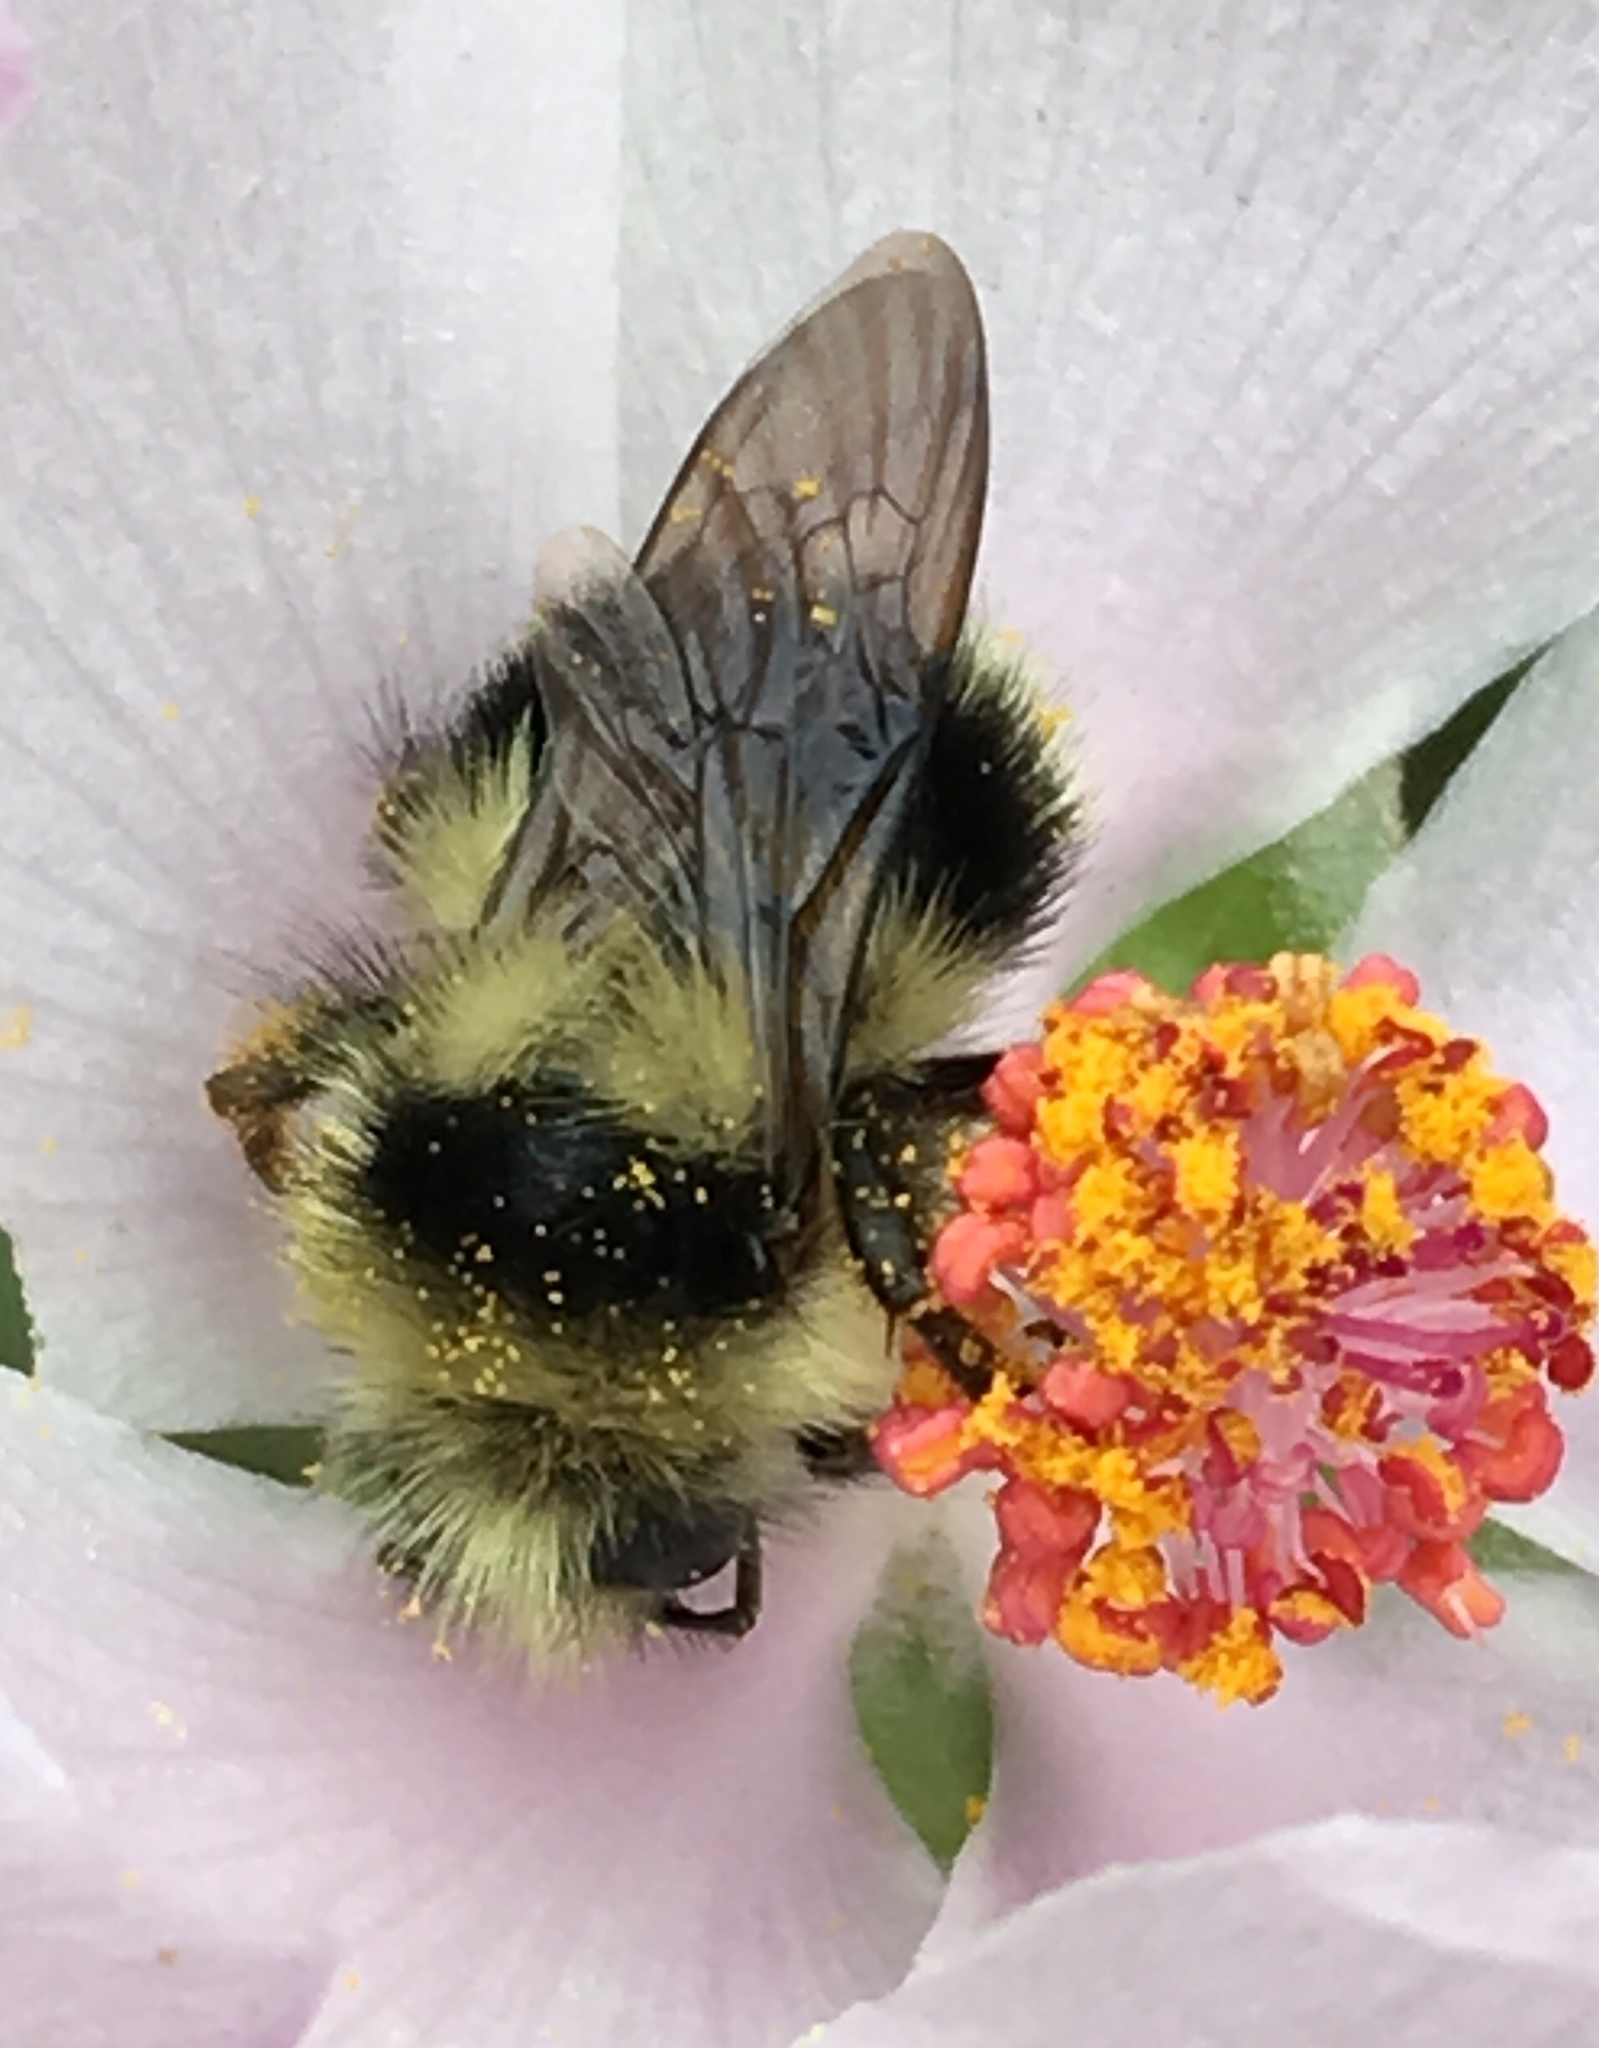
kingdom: Animalia
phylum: Arthropoda
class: Insecta
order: Hymenoptera
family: Apidae
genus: Bombus
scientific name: Bombus melanopygus
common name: Black tail bumble bee
